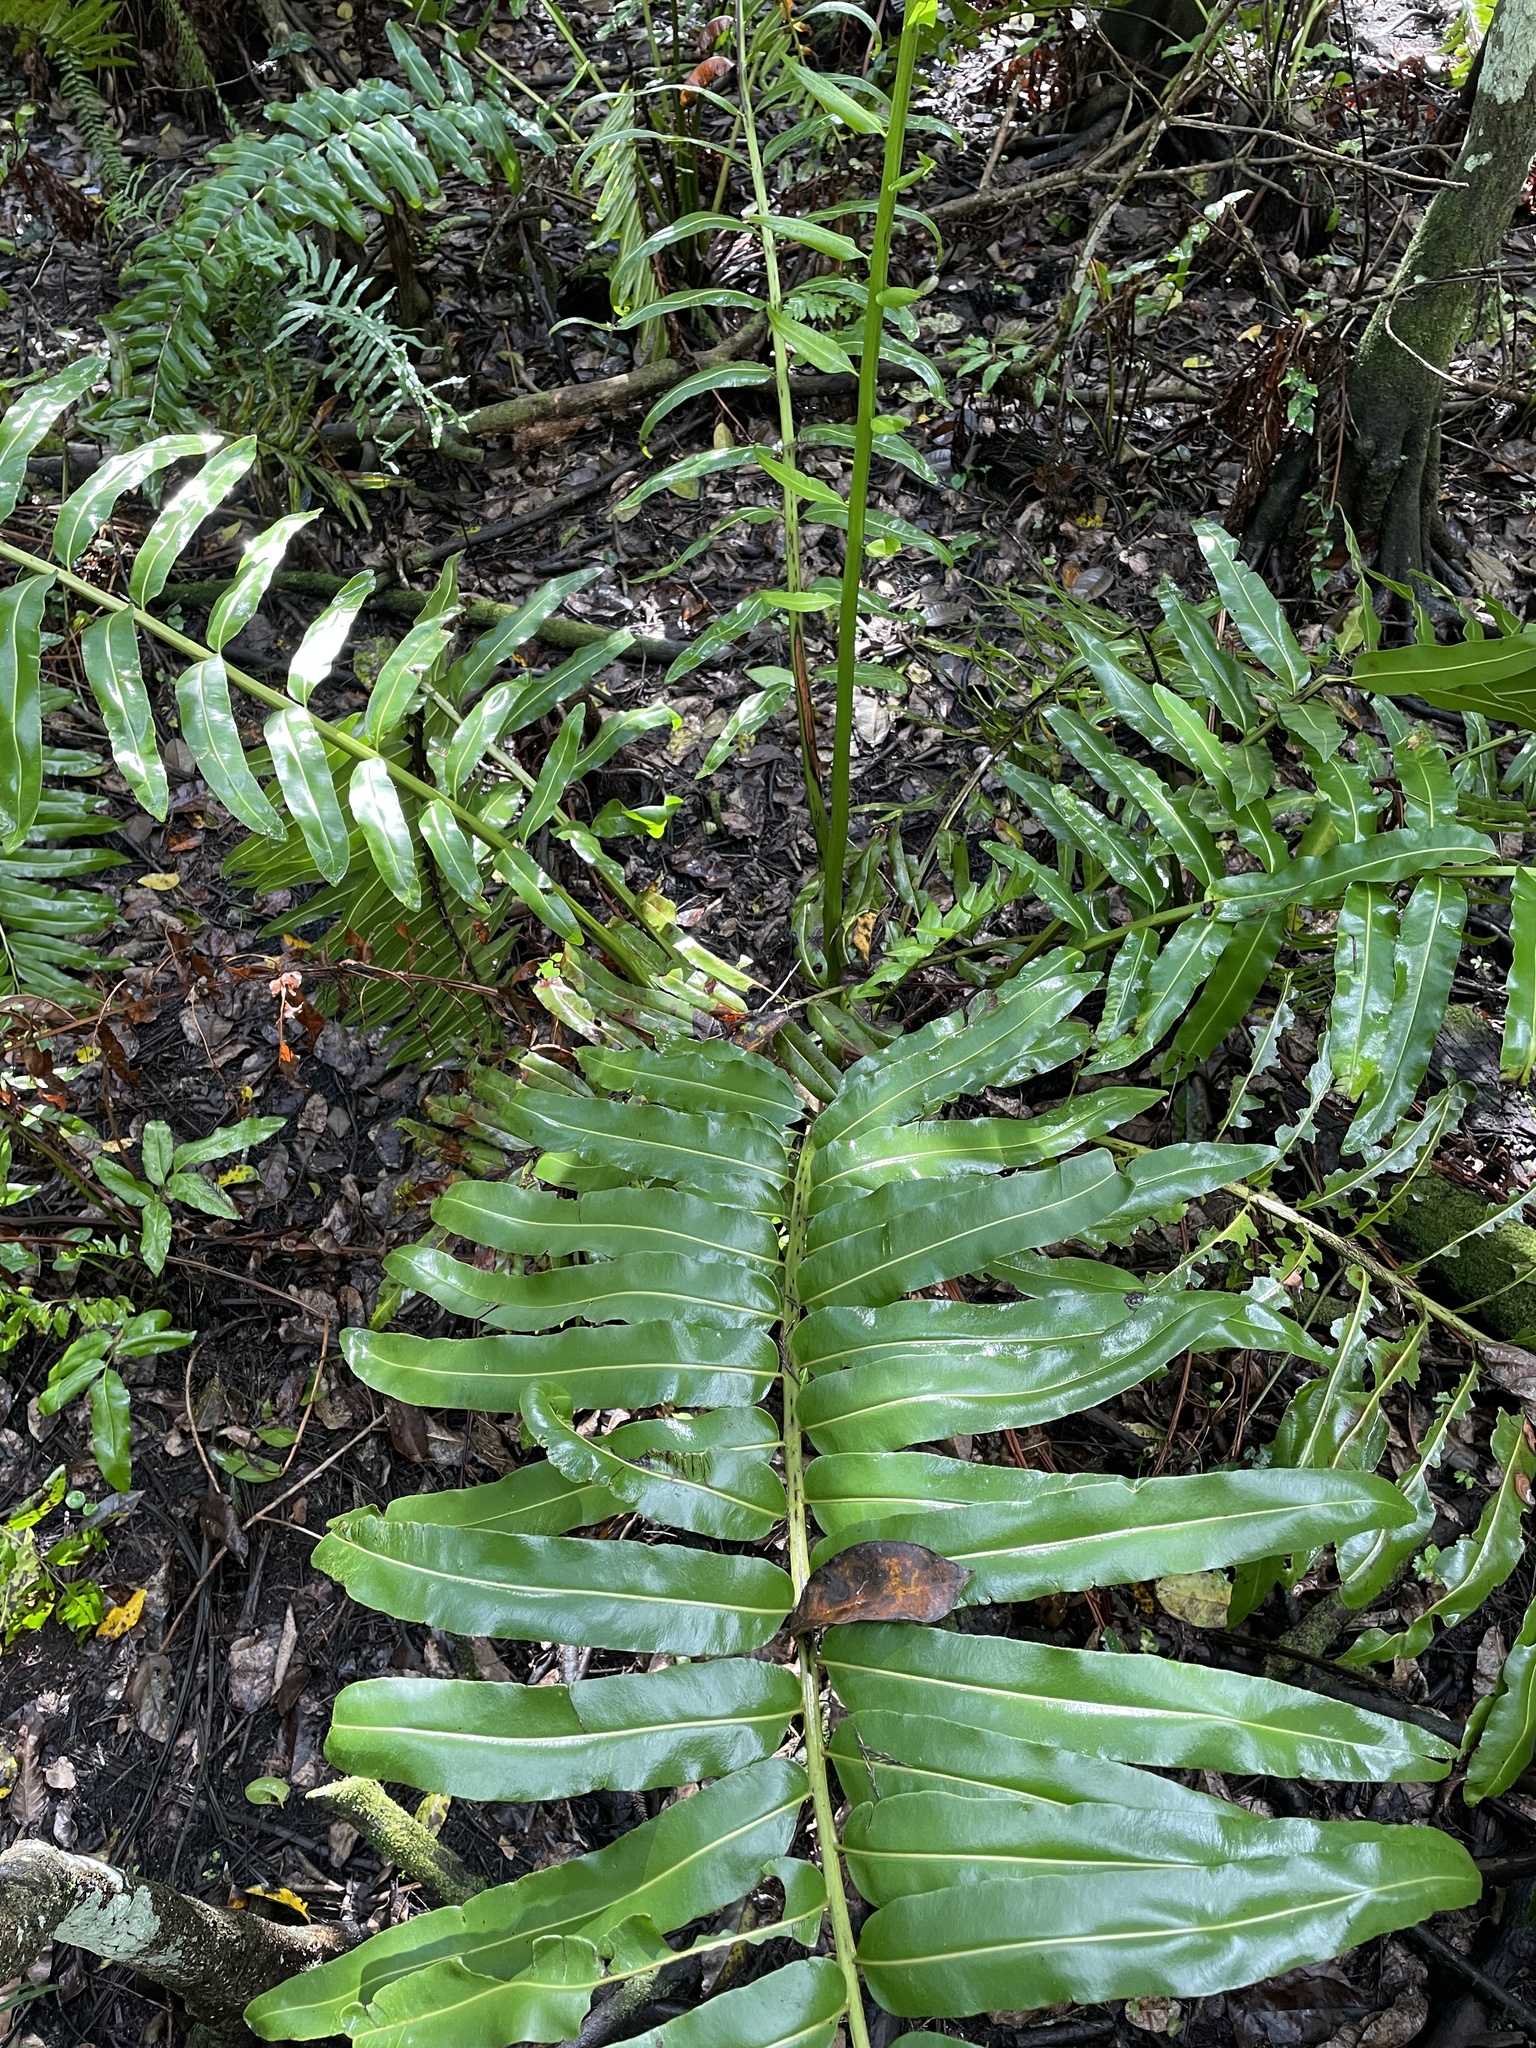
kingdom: Plantae
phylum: Tracheophyta
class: Polypodiopsida
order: Polypodiales
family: Pteridaceae
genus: Acrostichum
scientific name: Acrostichum danaeifolium
